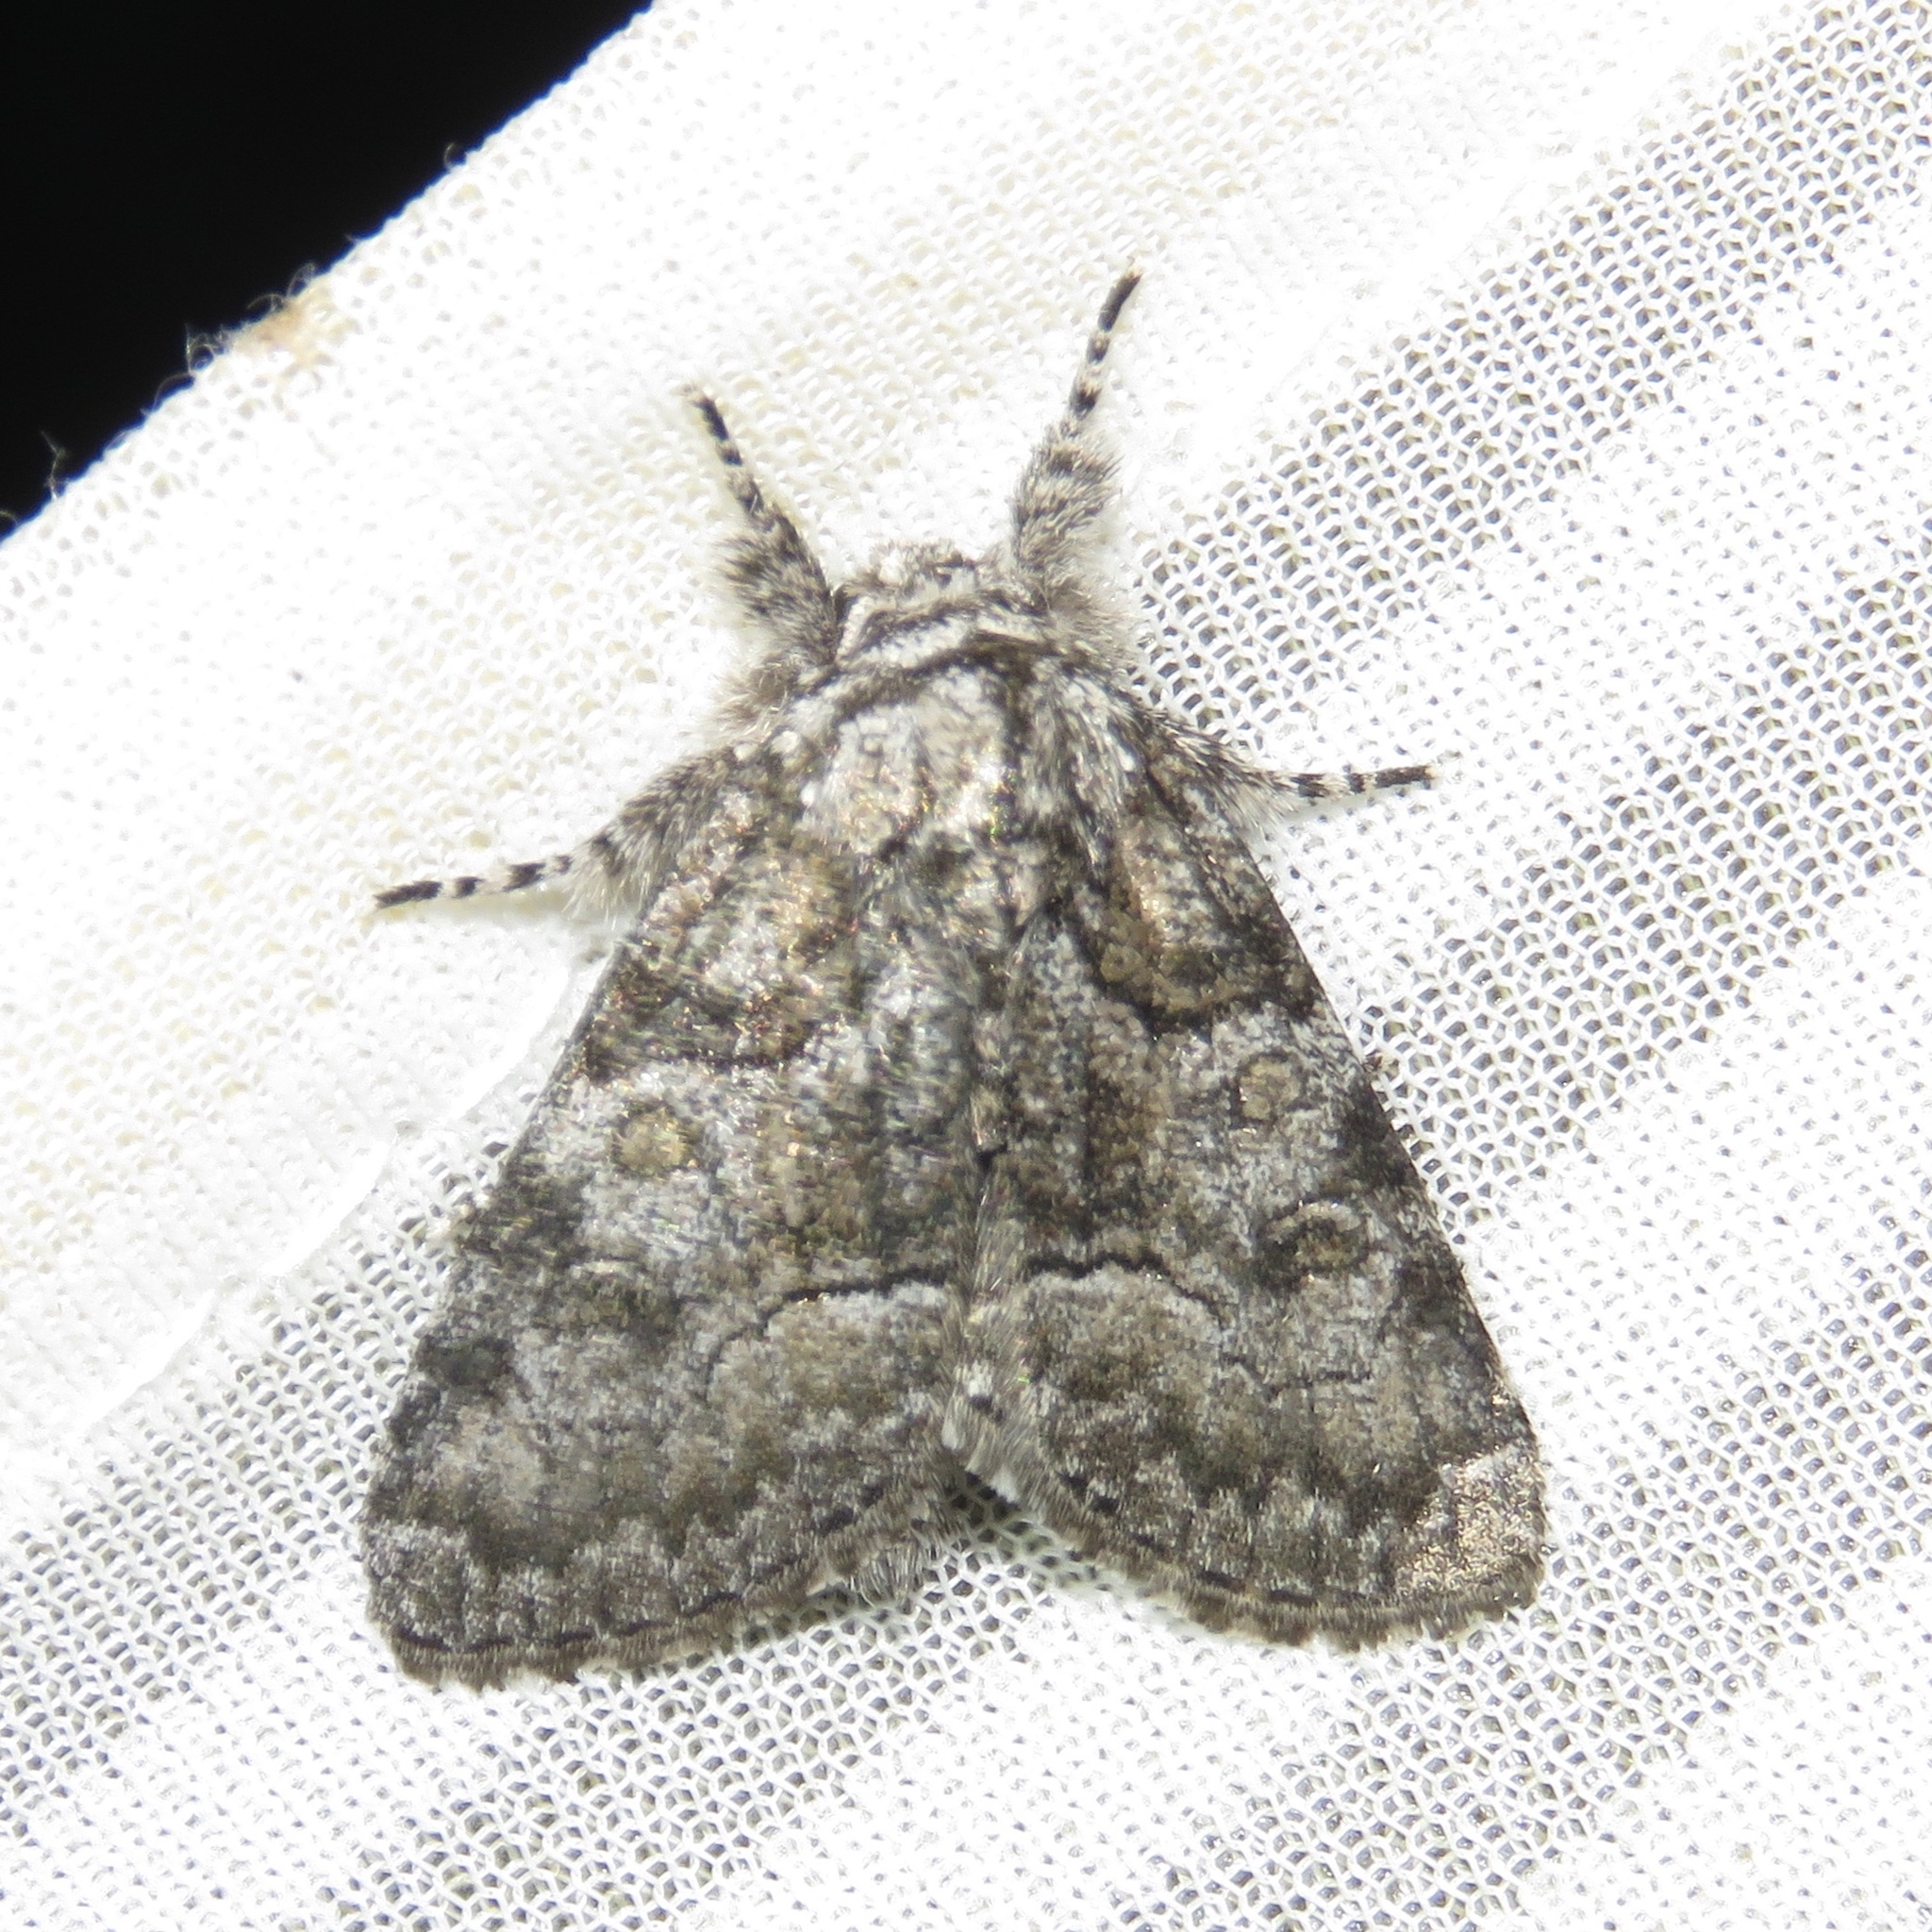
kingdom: Animalia
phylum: Arthropoda
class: Insecta
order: Lepidoptera
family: Noctuidae
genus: Raphia
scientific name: Raphia frater
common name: Brother
